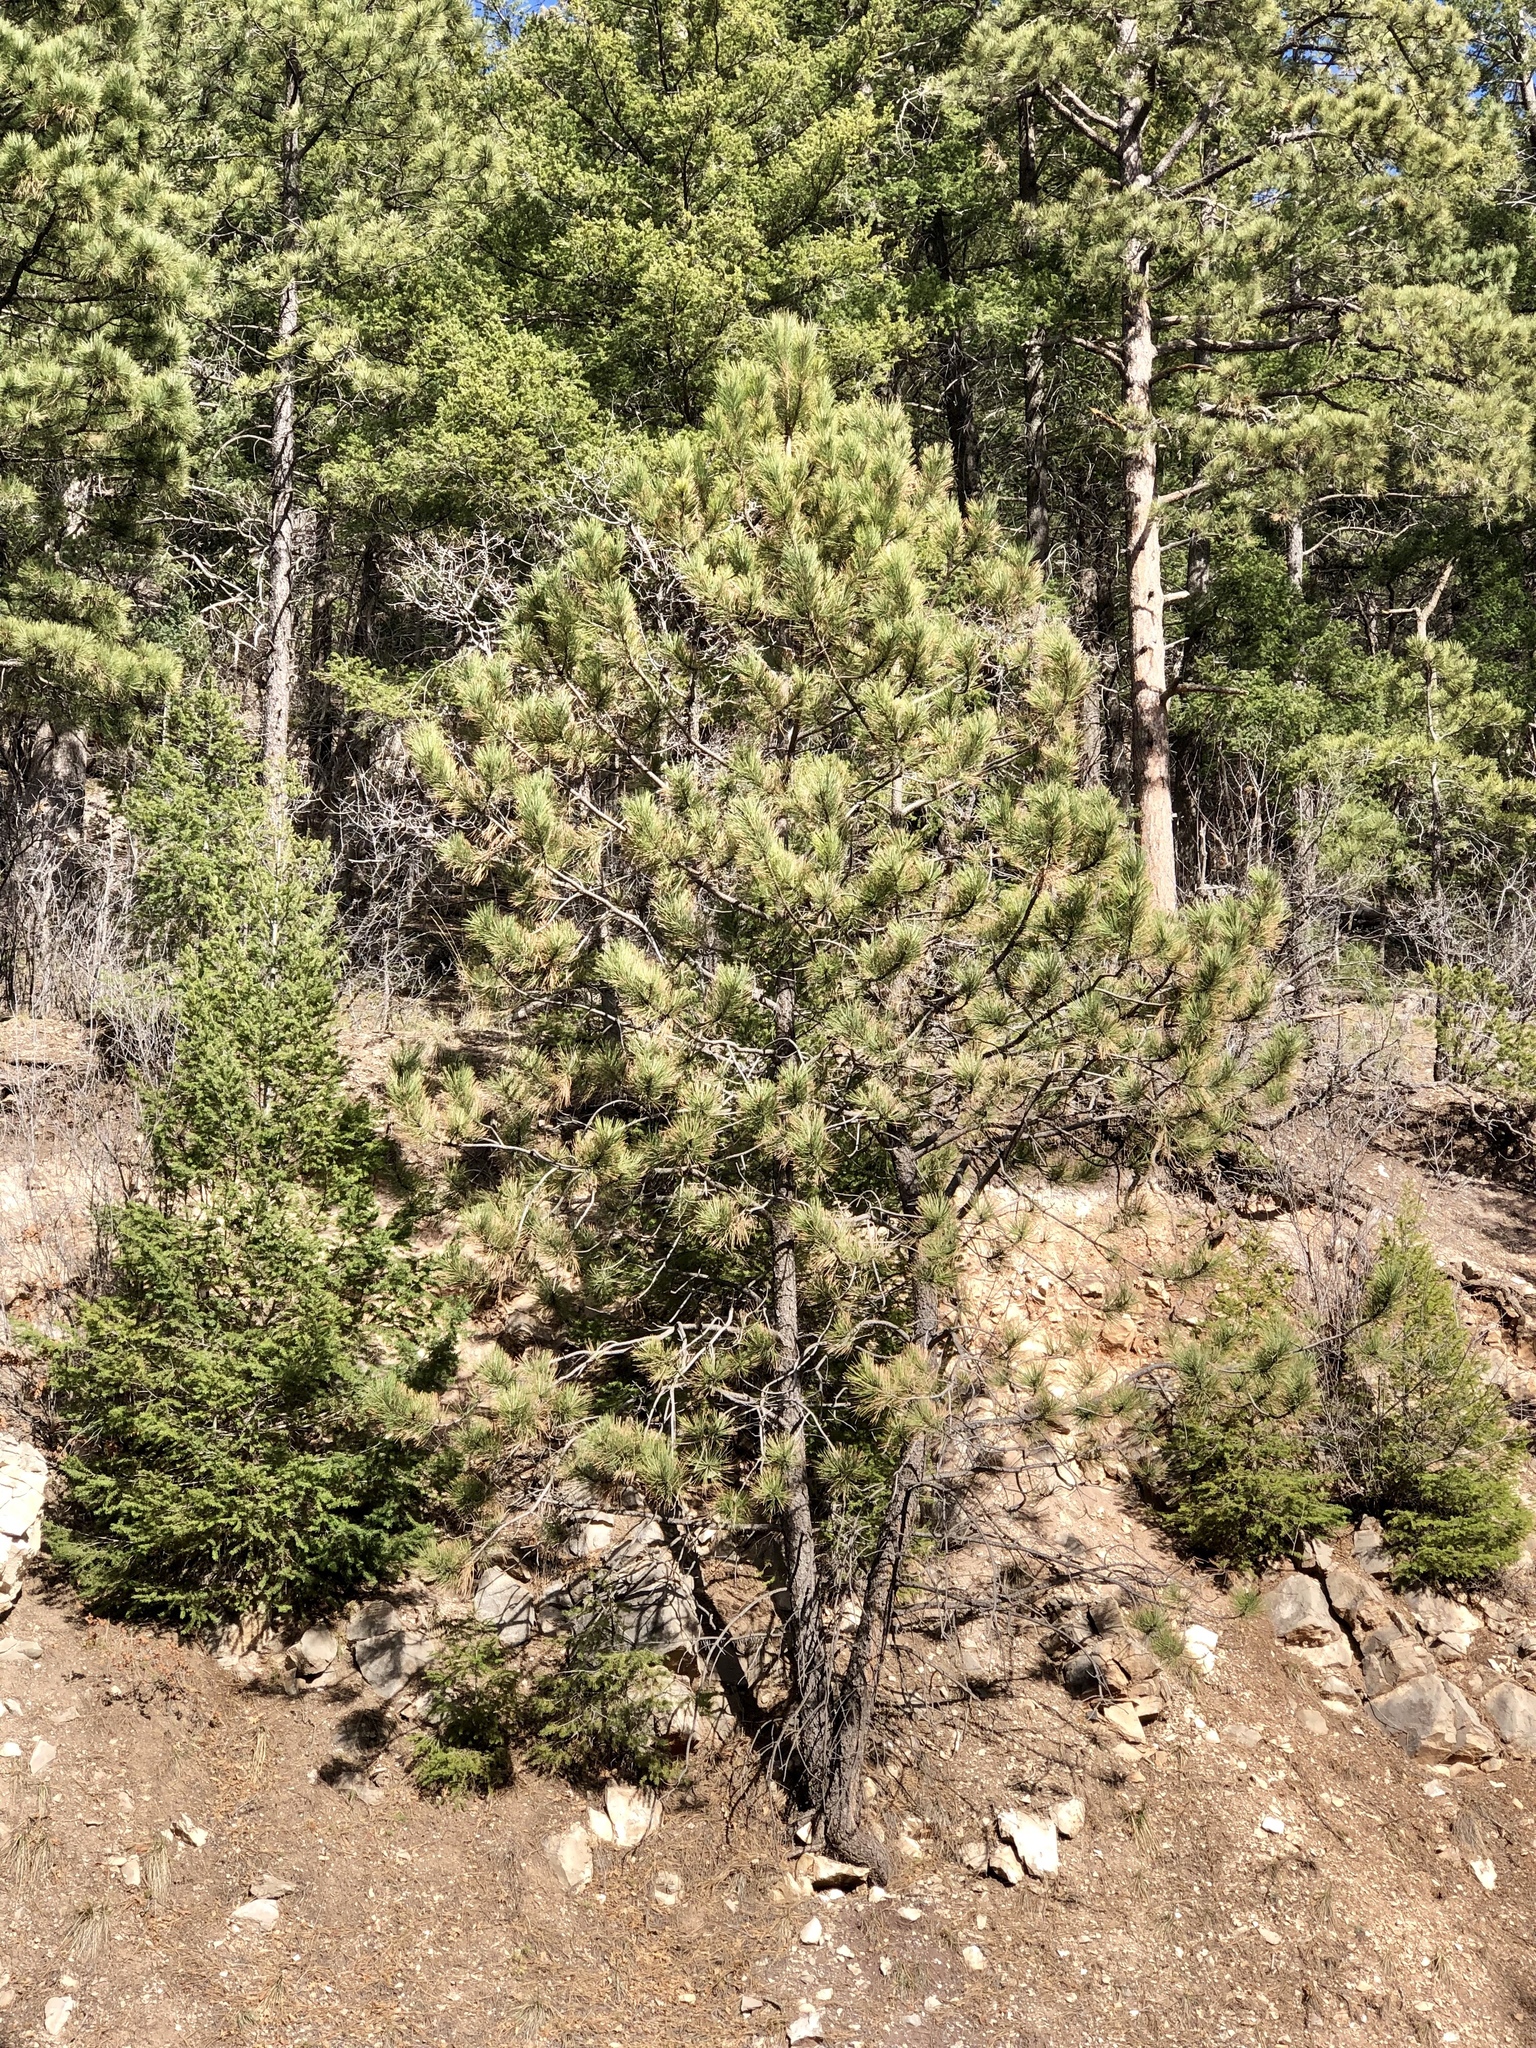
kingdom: Plantae
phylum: Tracheophyta
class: Pinopsida
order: Pinales
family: Pinaceae
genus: Pinus
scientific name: Pinus ponderosa
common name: Western yellow-pine
